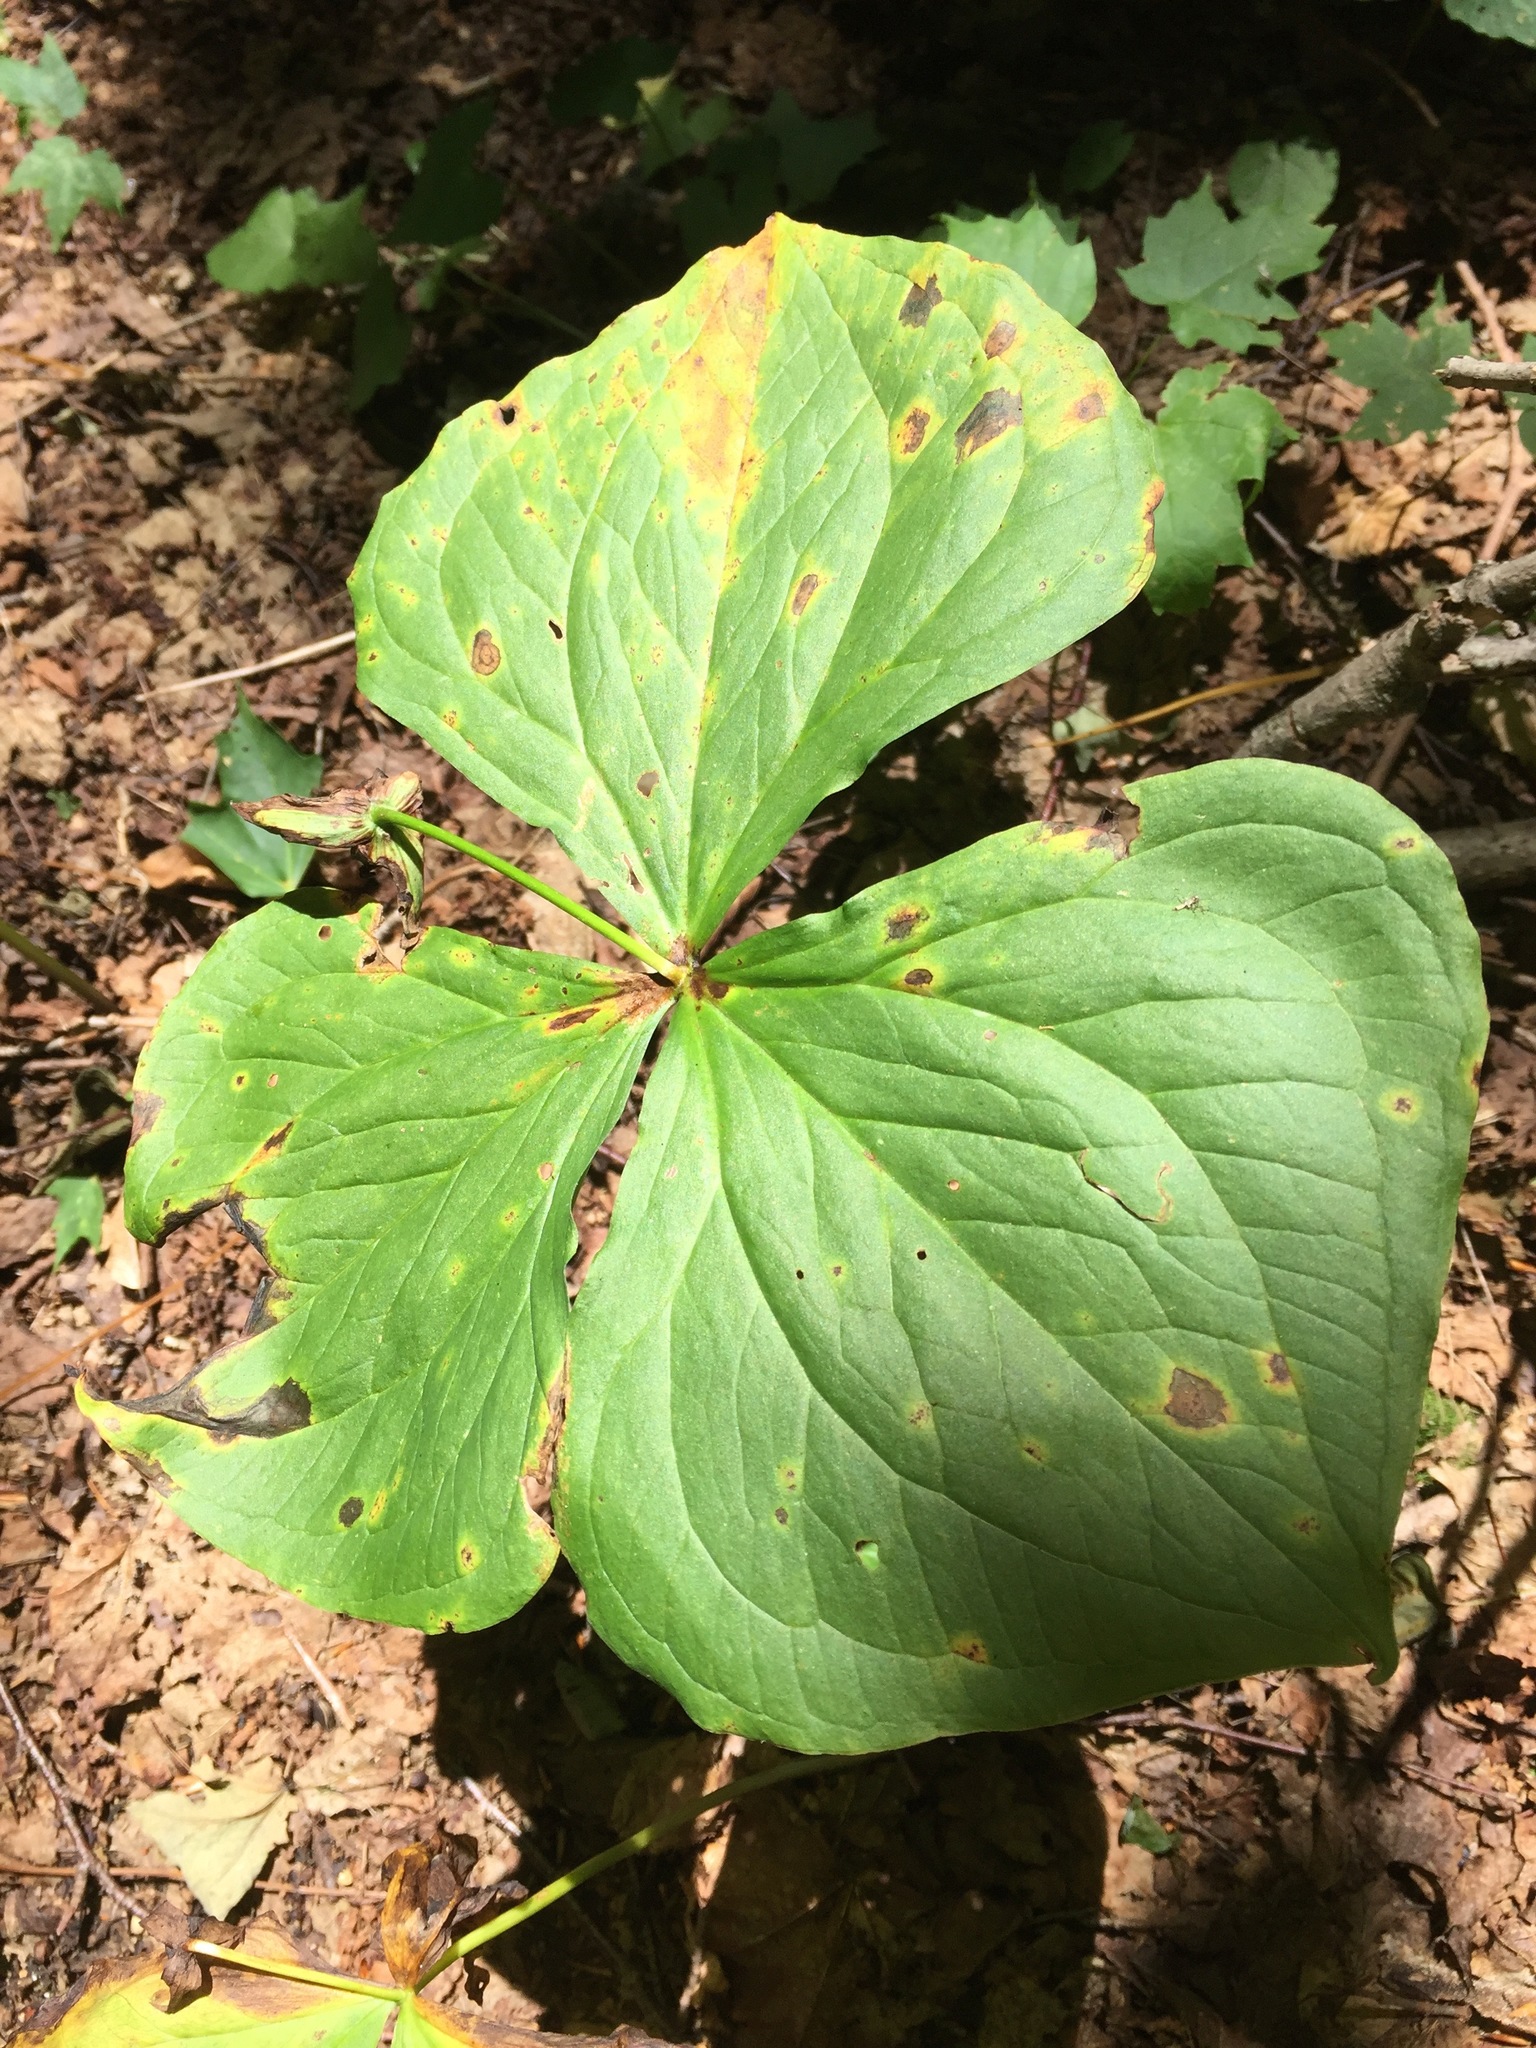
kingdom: Plantae
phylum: Tracheophyta
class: Liliopsida
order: Liliales
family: Melanthiaceae
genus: Trillium
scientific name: Trillium erectum
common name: Purple trillium
